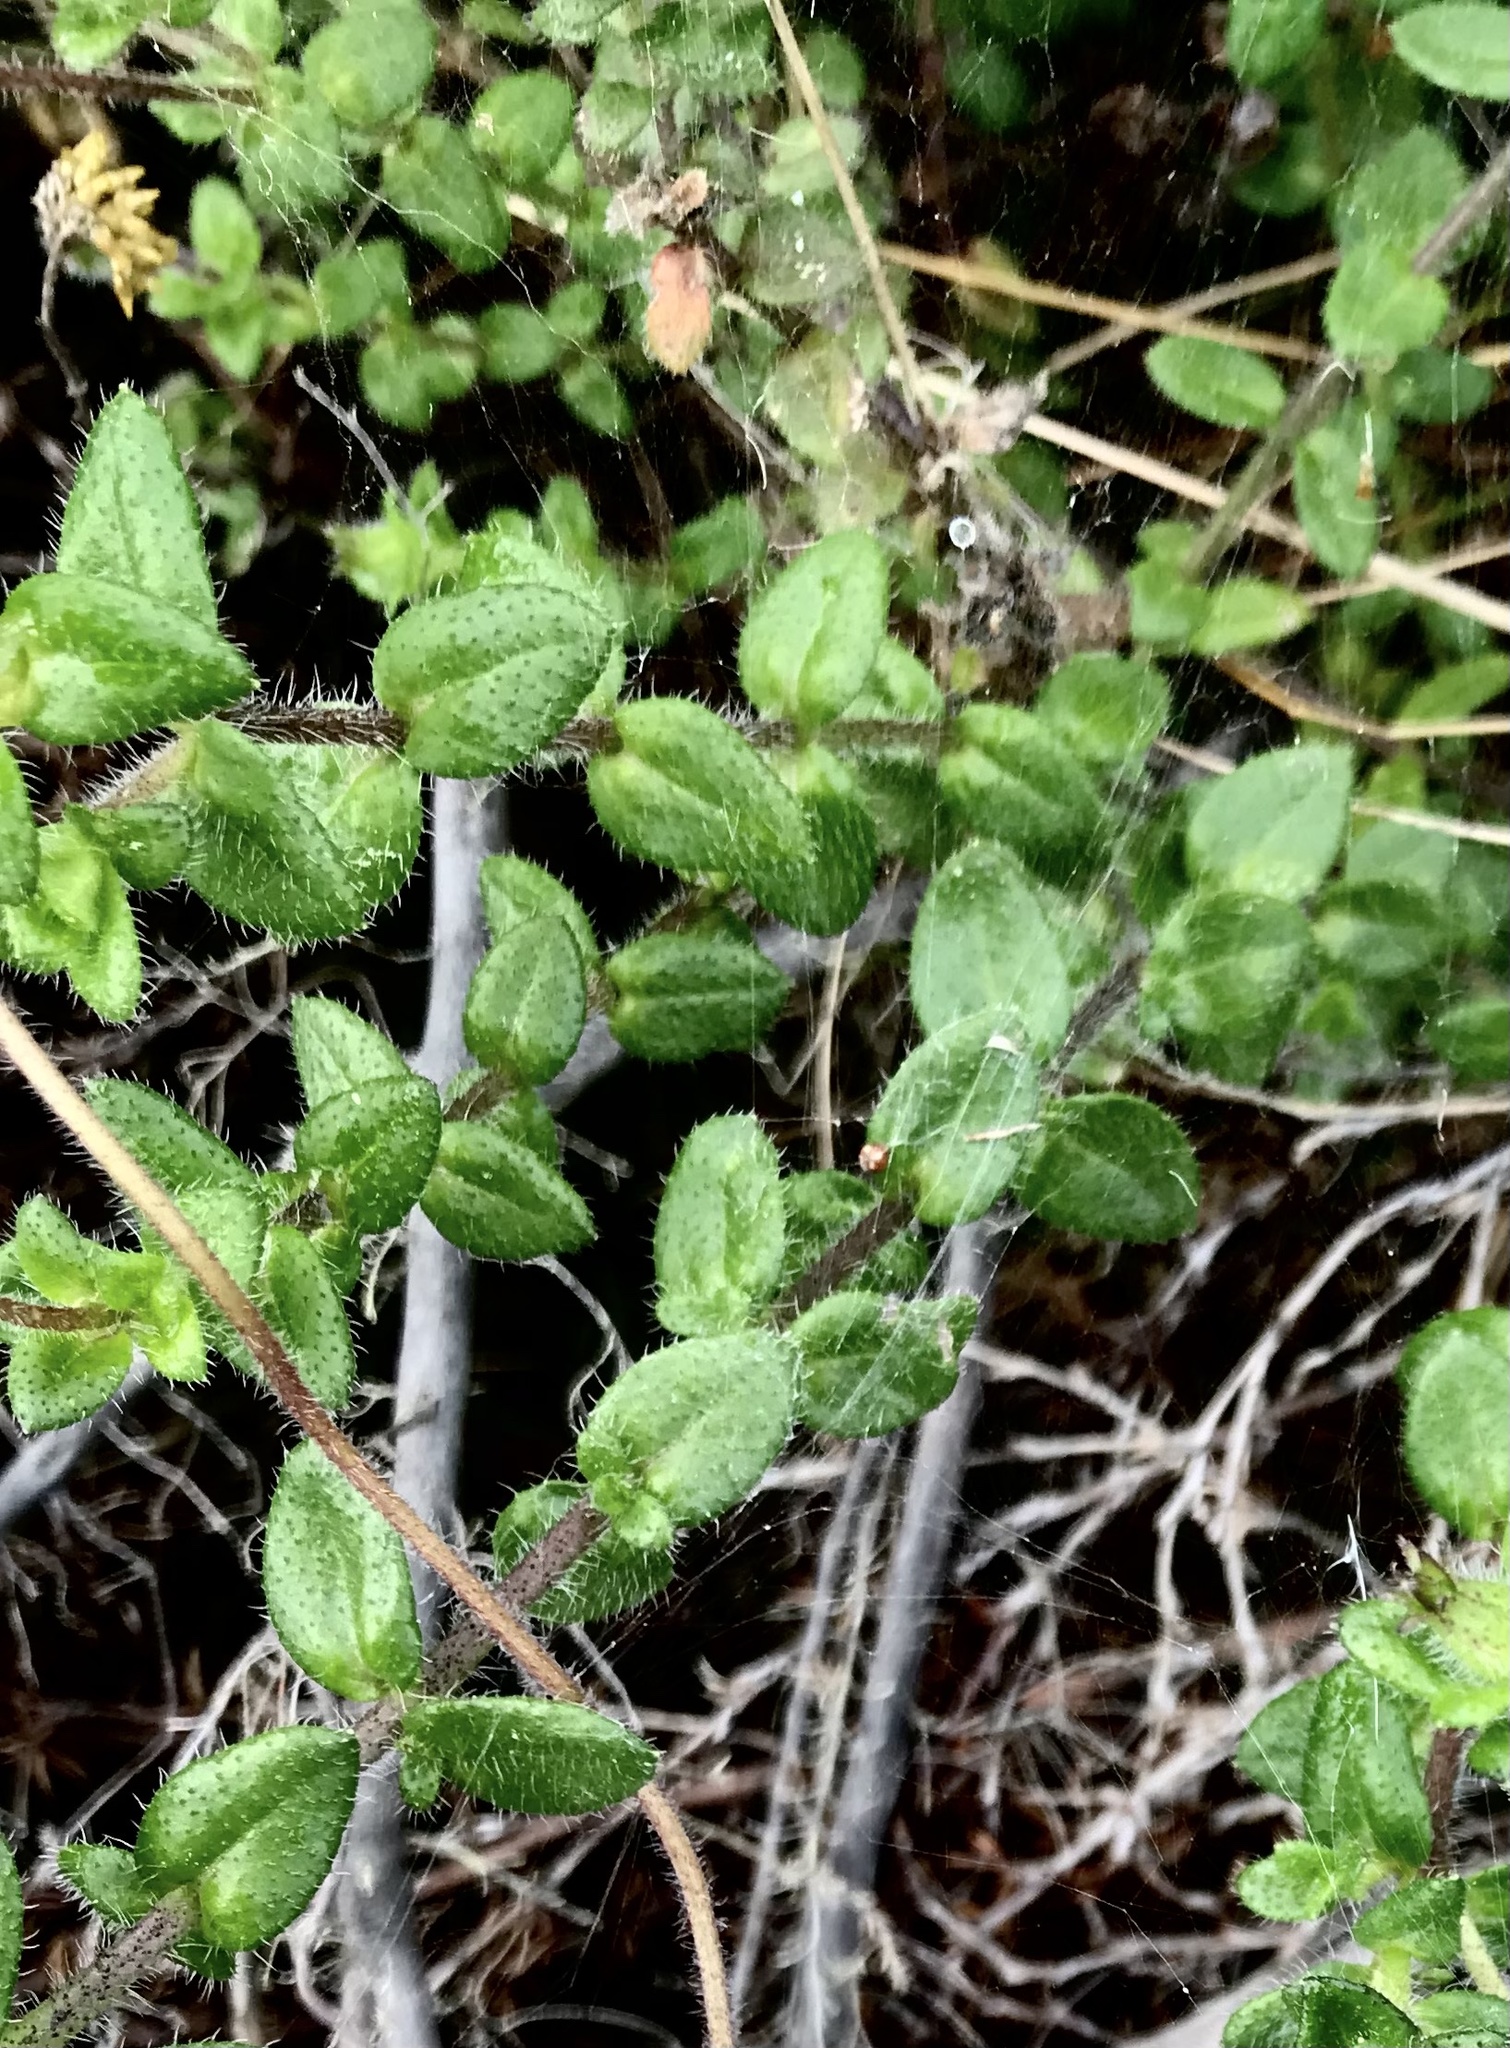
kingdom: Plantae
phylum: Tracheophyta
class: Magnoliopsida
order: Asterales
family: Asteraceae
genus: Felicia
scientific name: Felicia aethiopica
